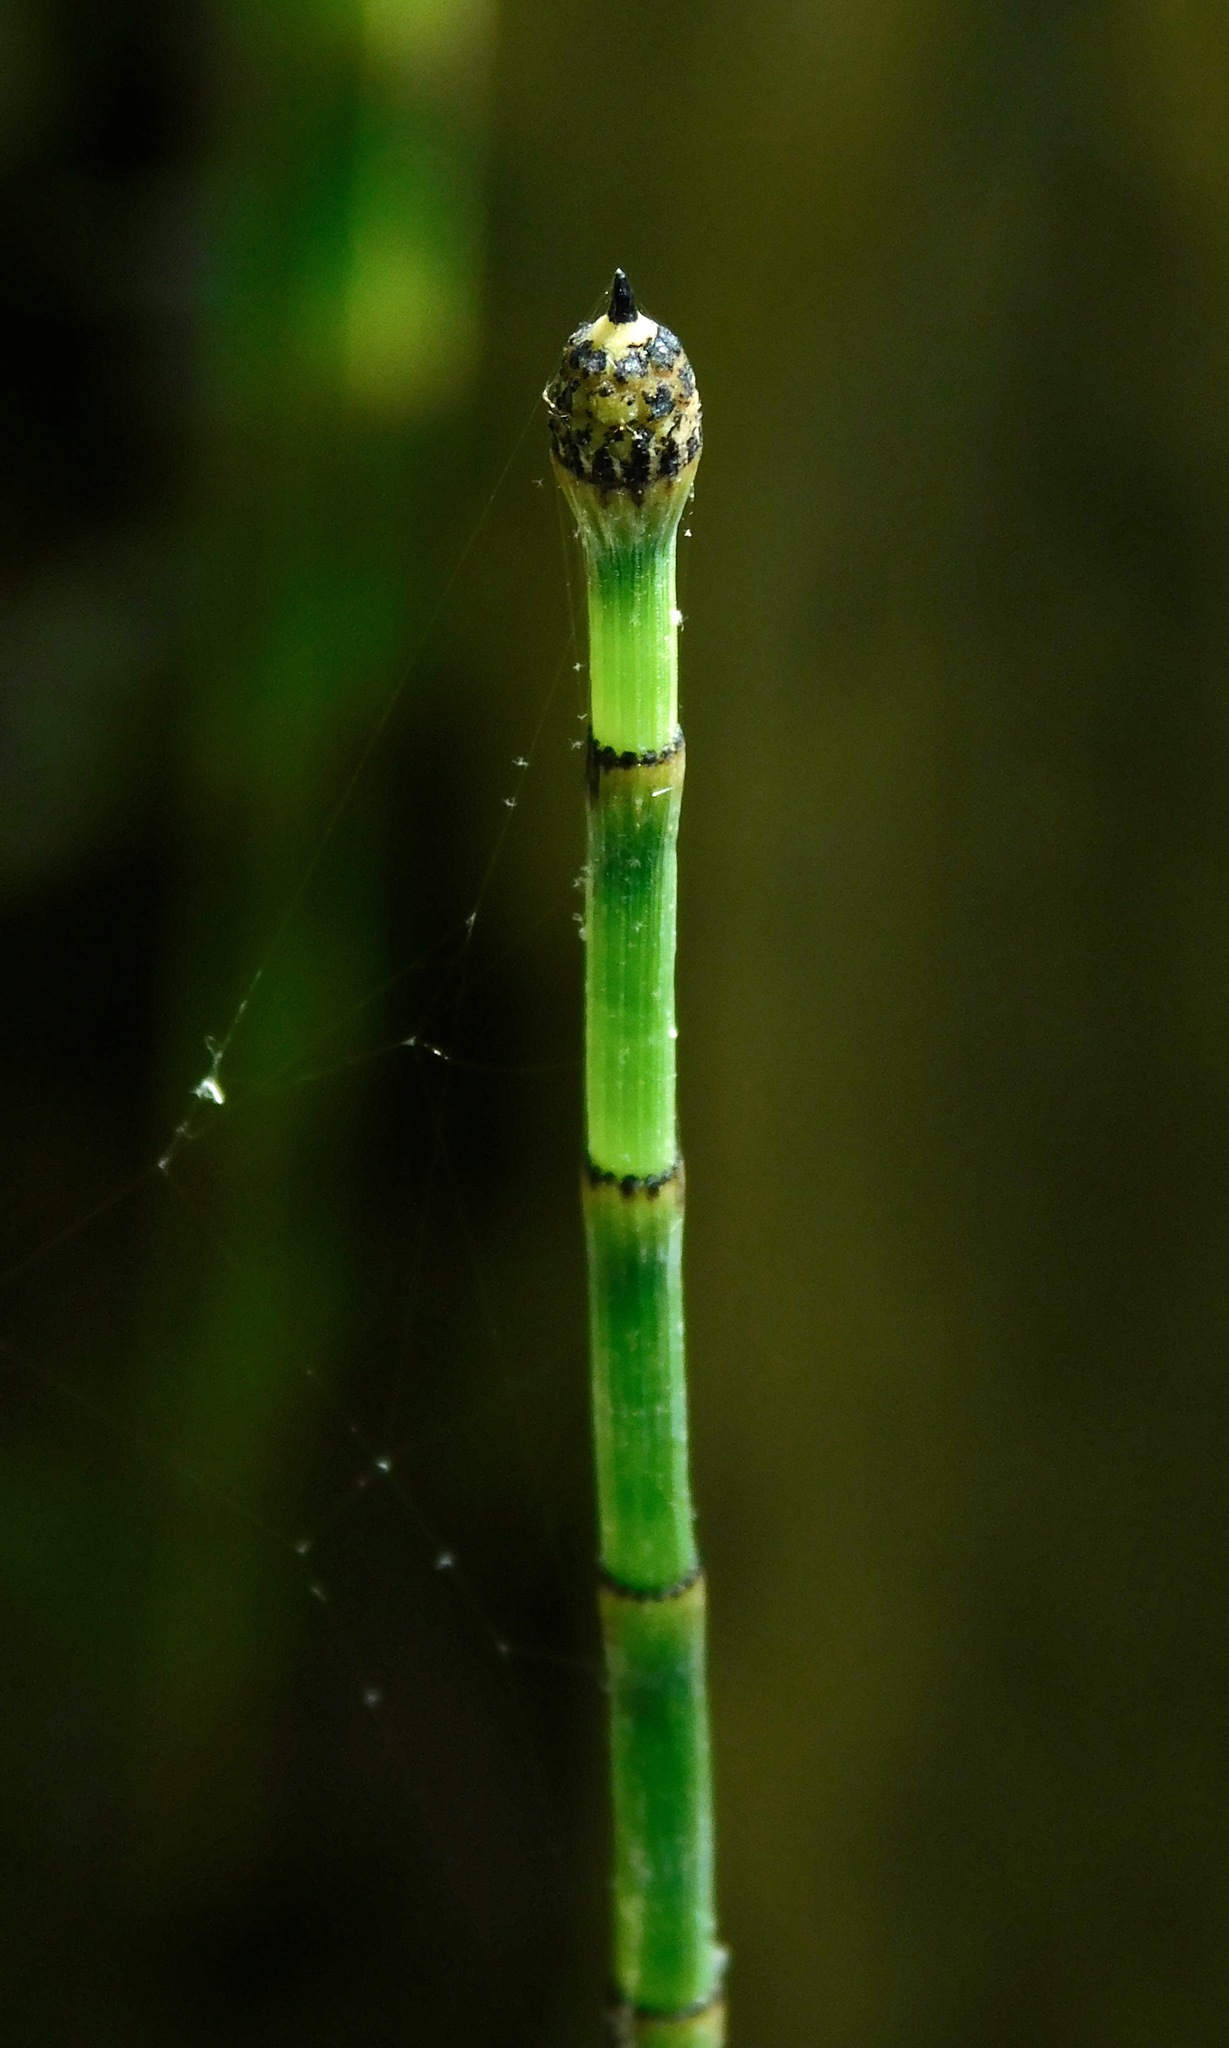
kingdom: Plantae
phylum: Tracheophyta
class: Polypodiopsida
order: Equisetales
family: Equisetaceae
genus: Equisetum
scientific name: Equisetum hyemale
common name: Rough horsetail
